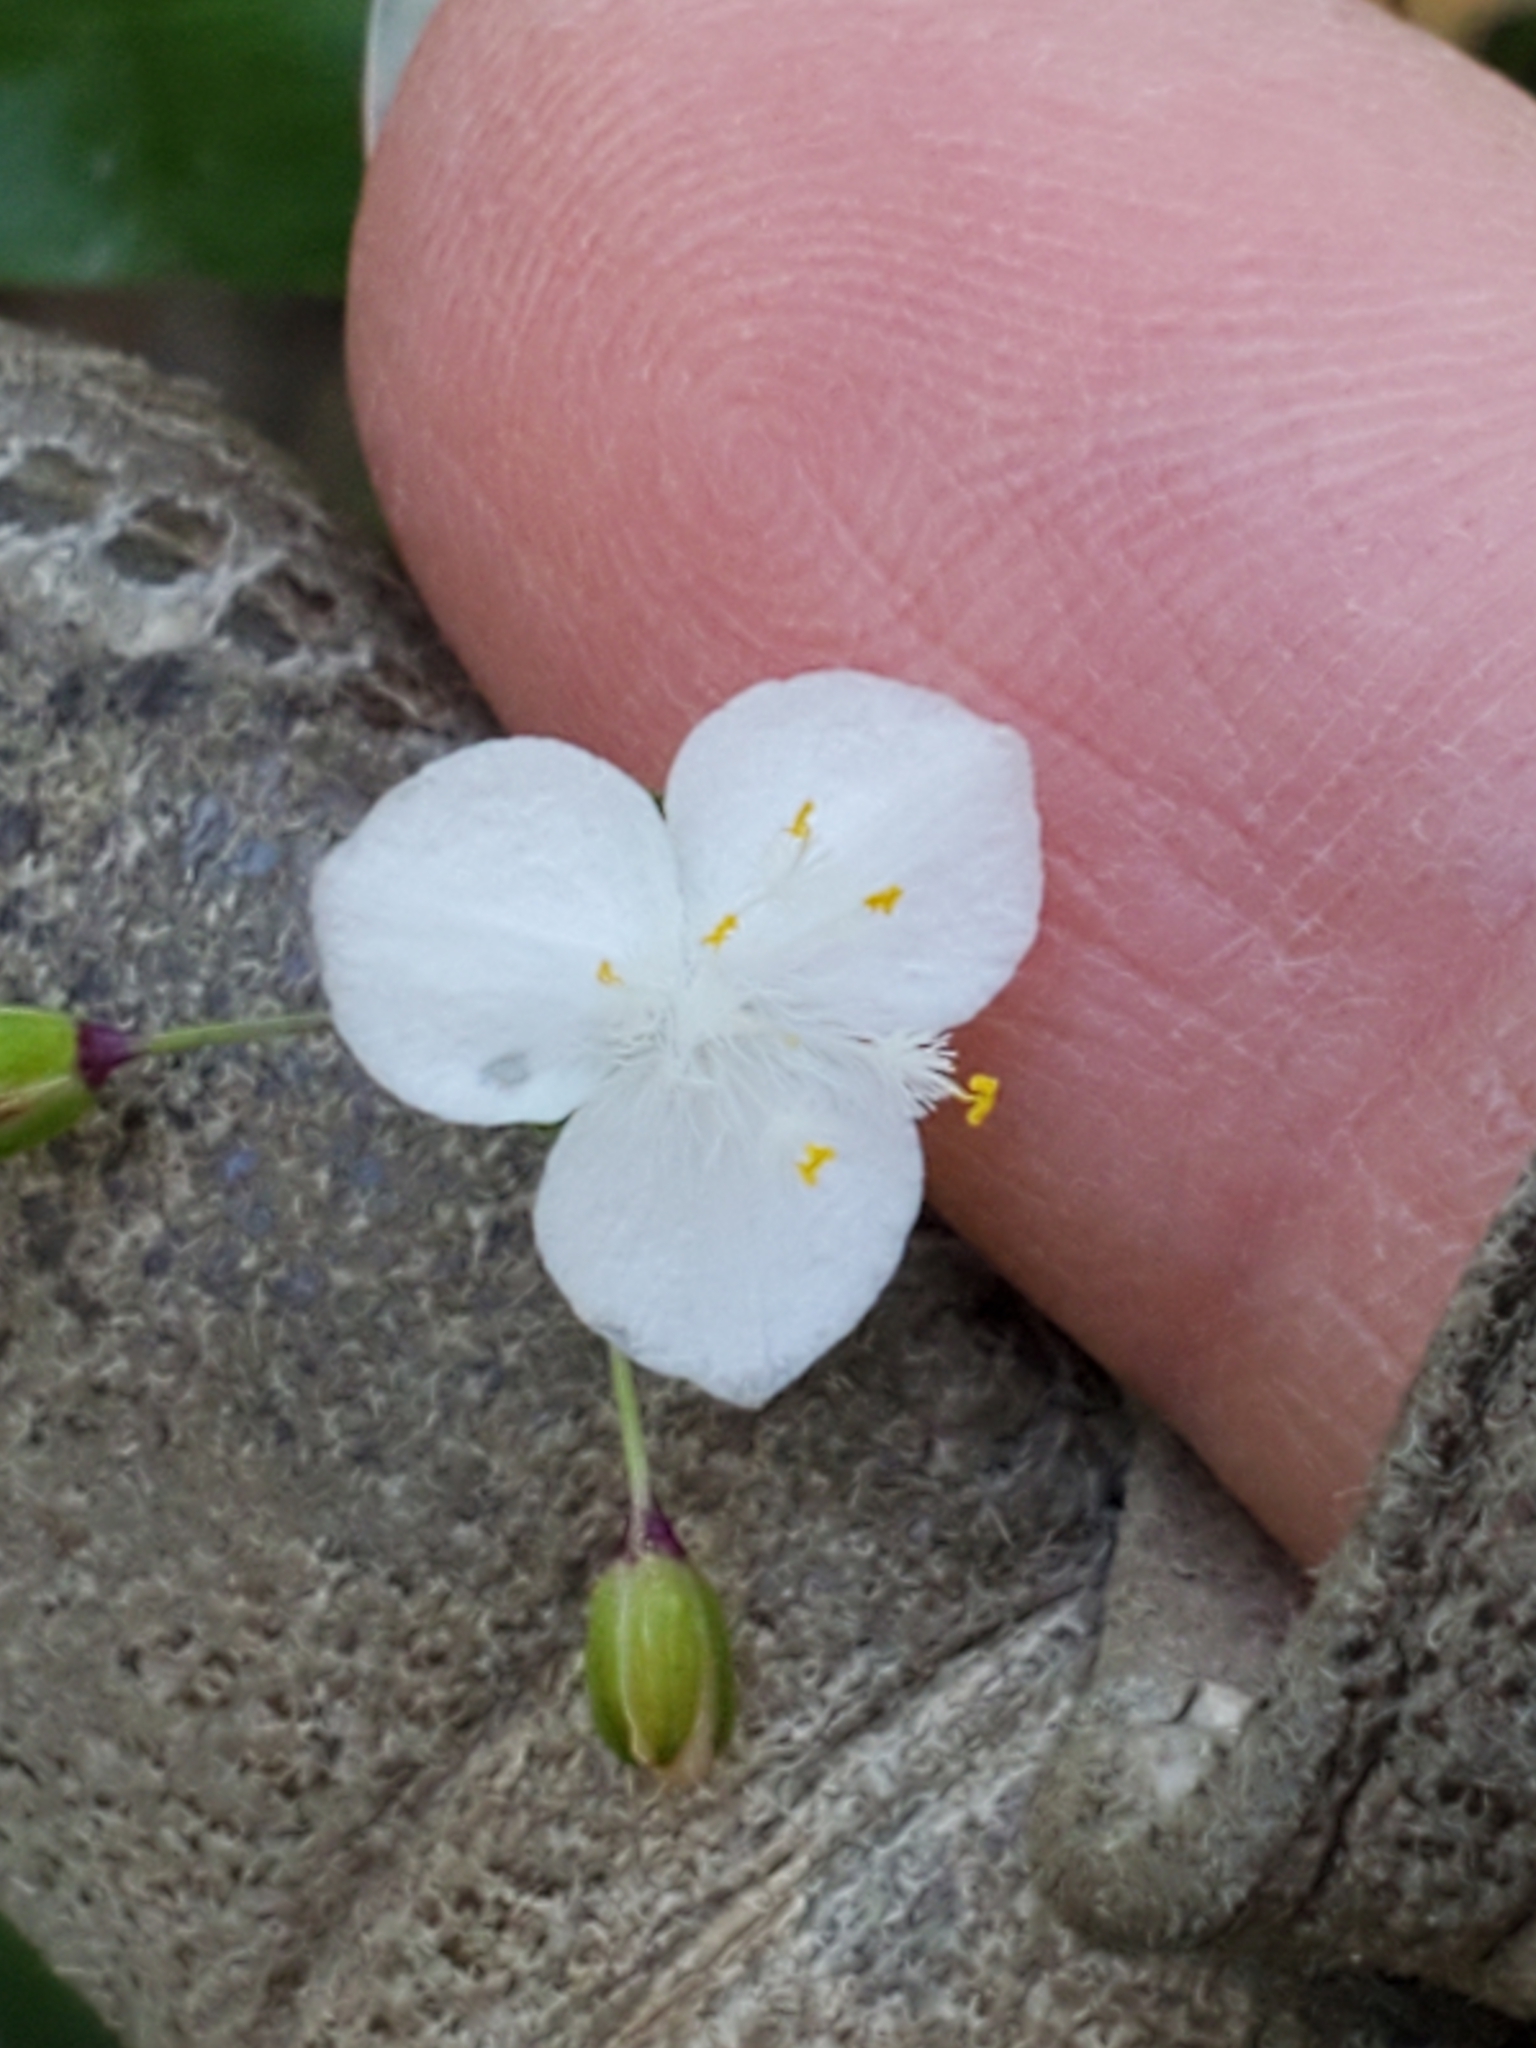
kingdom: Plantae
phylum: Tracheophyta
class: Liliopsida
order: Commelinales
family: Commelinaceae
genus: Gibasis
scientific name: Gibasis pellucida
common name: Dotted bridalveil
